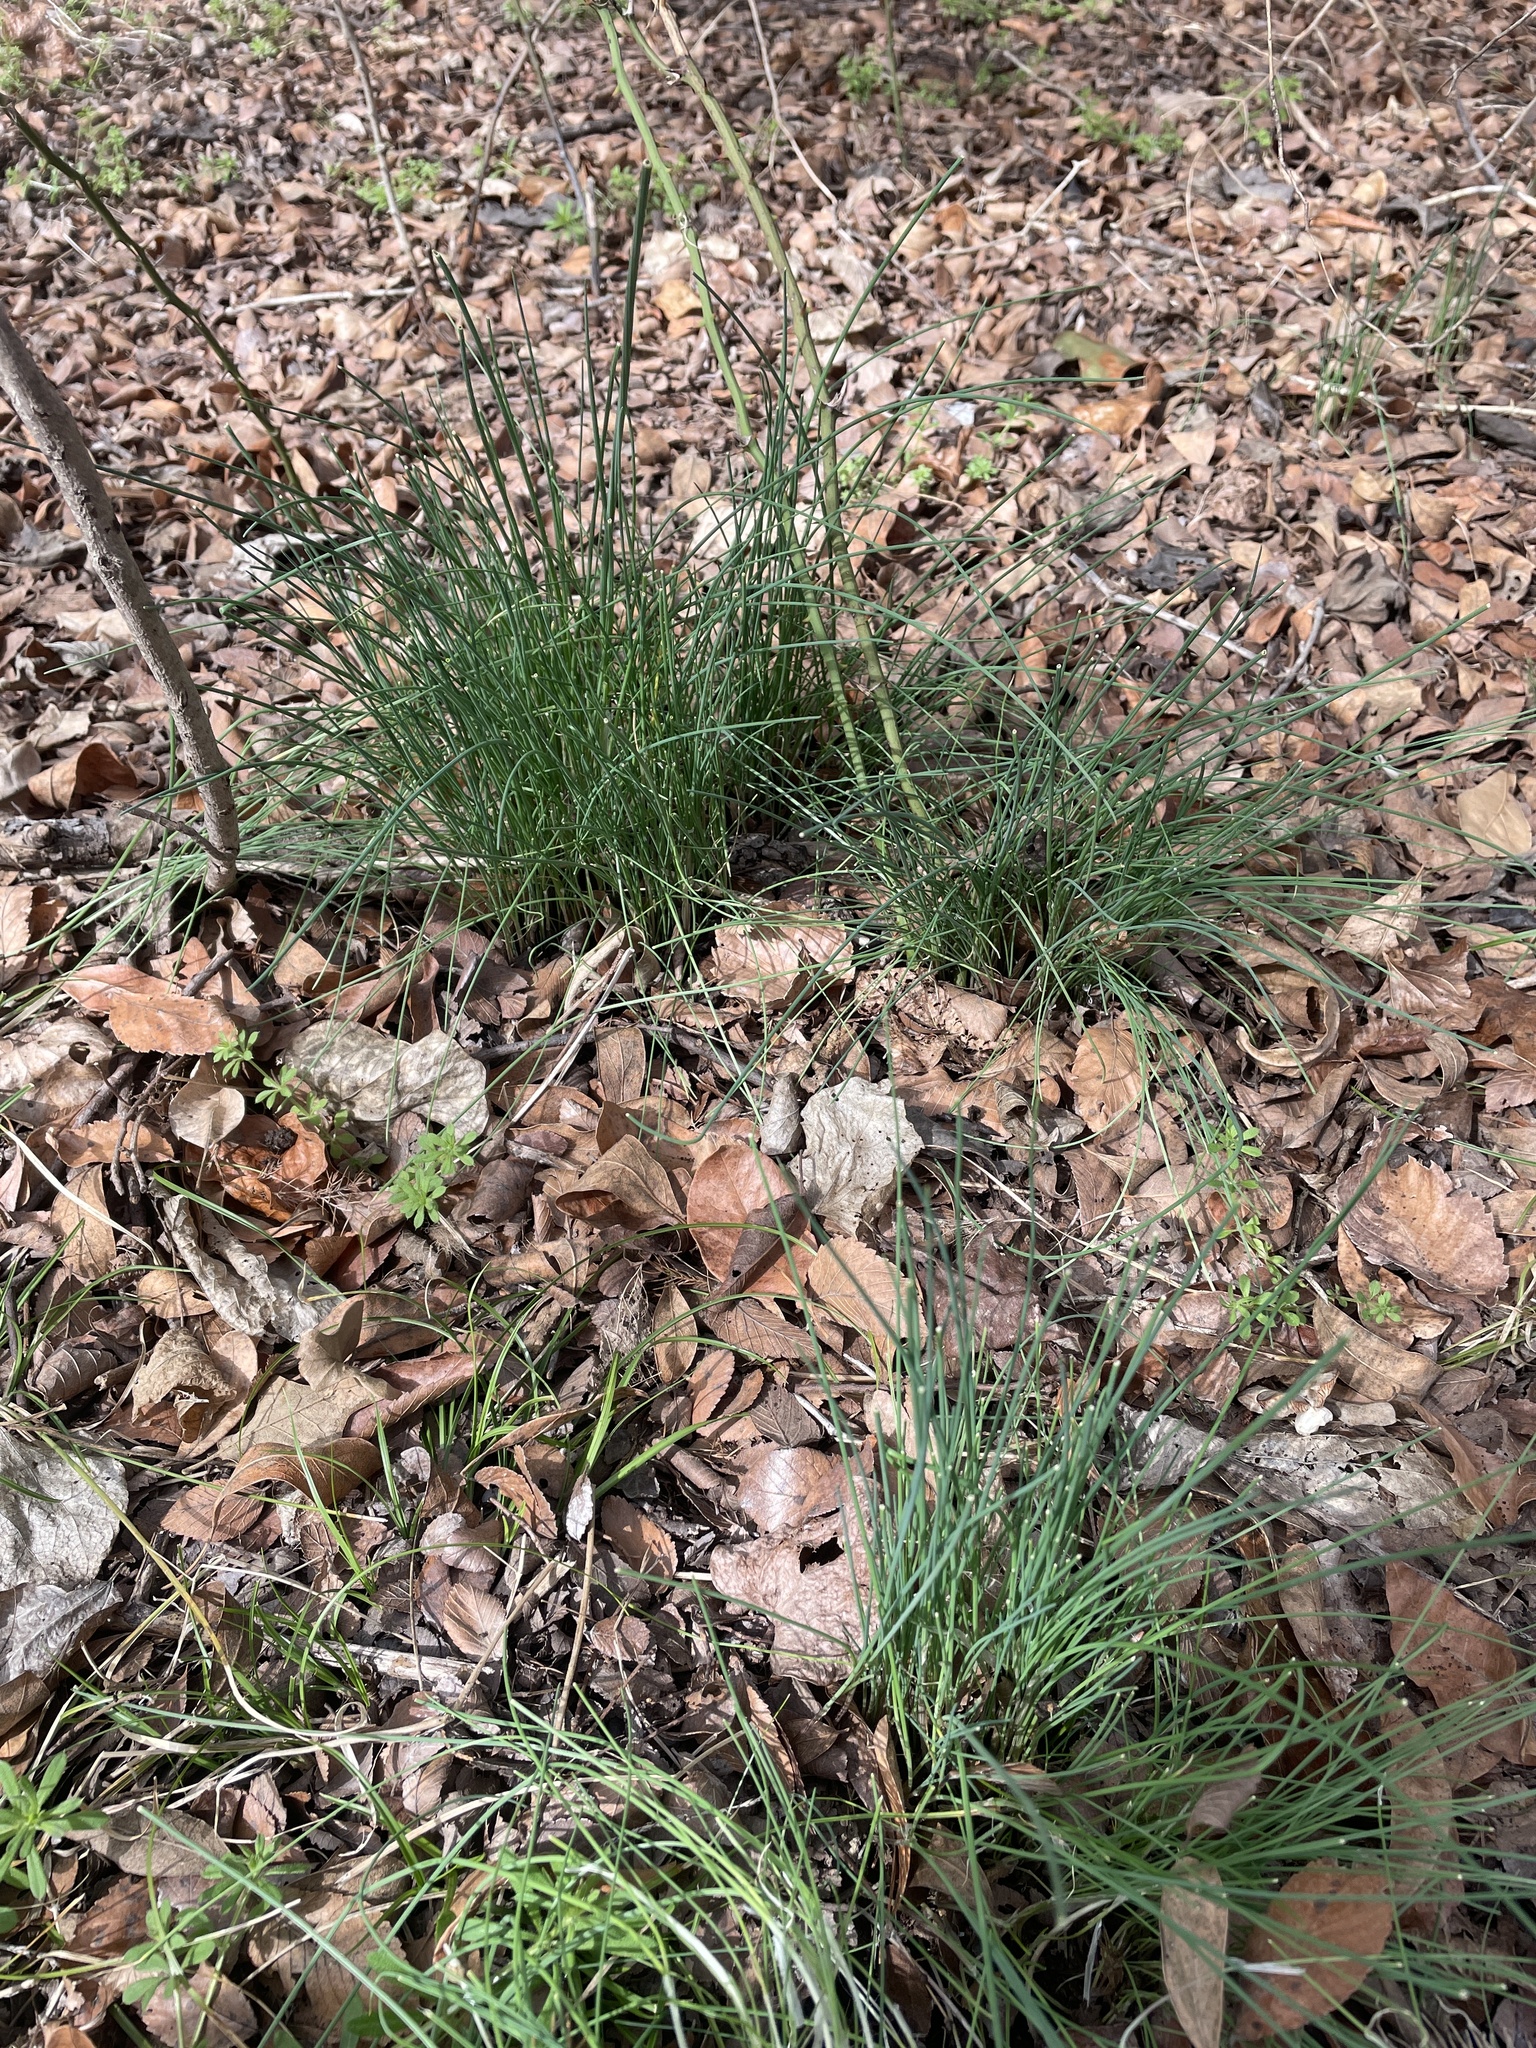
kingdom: Plantae
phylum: Tracheophyta
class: Liliopsida
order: Asparagales
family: Amaryllidaceae
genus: Allium
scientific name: Allium vineale
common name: Crow garlic
